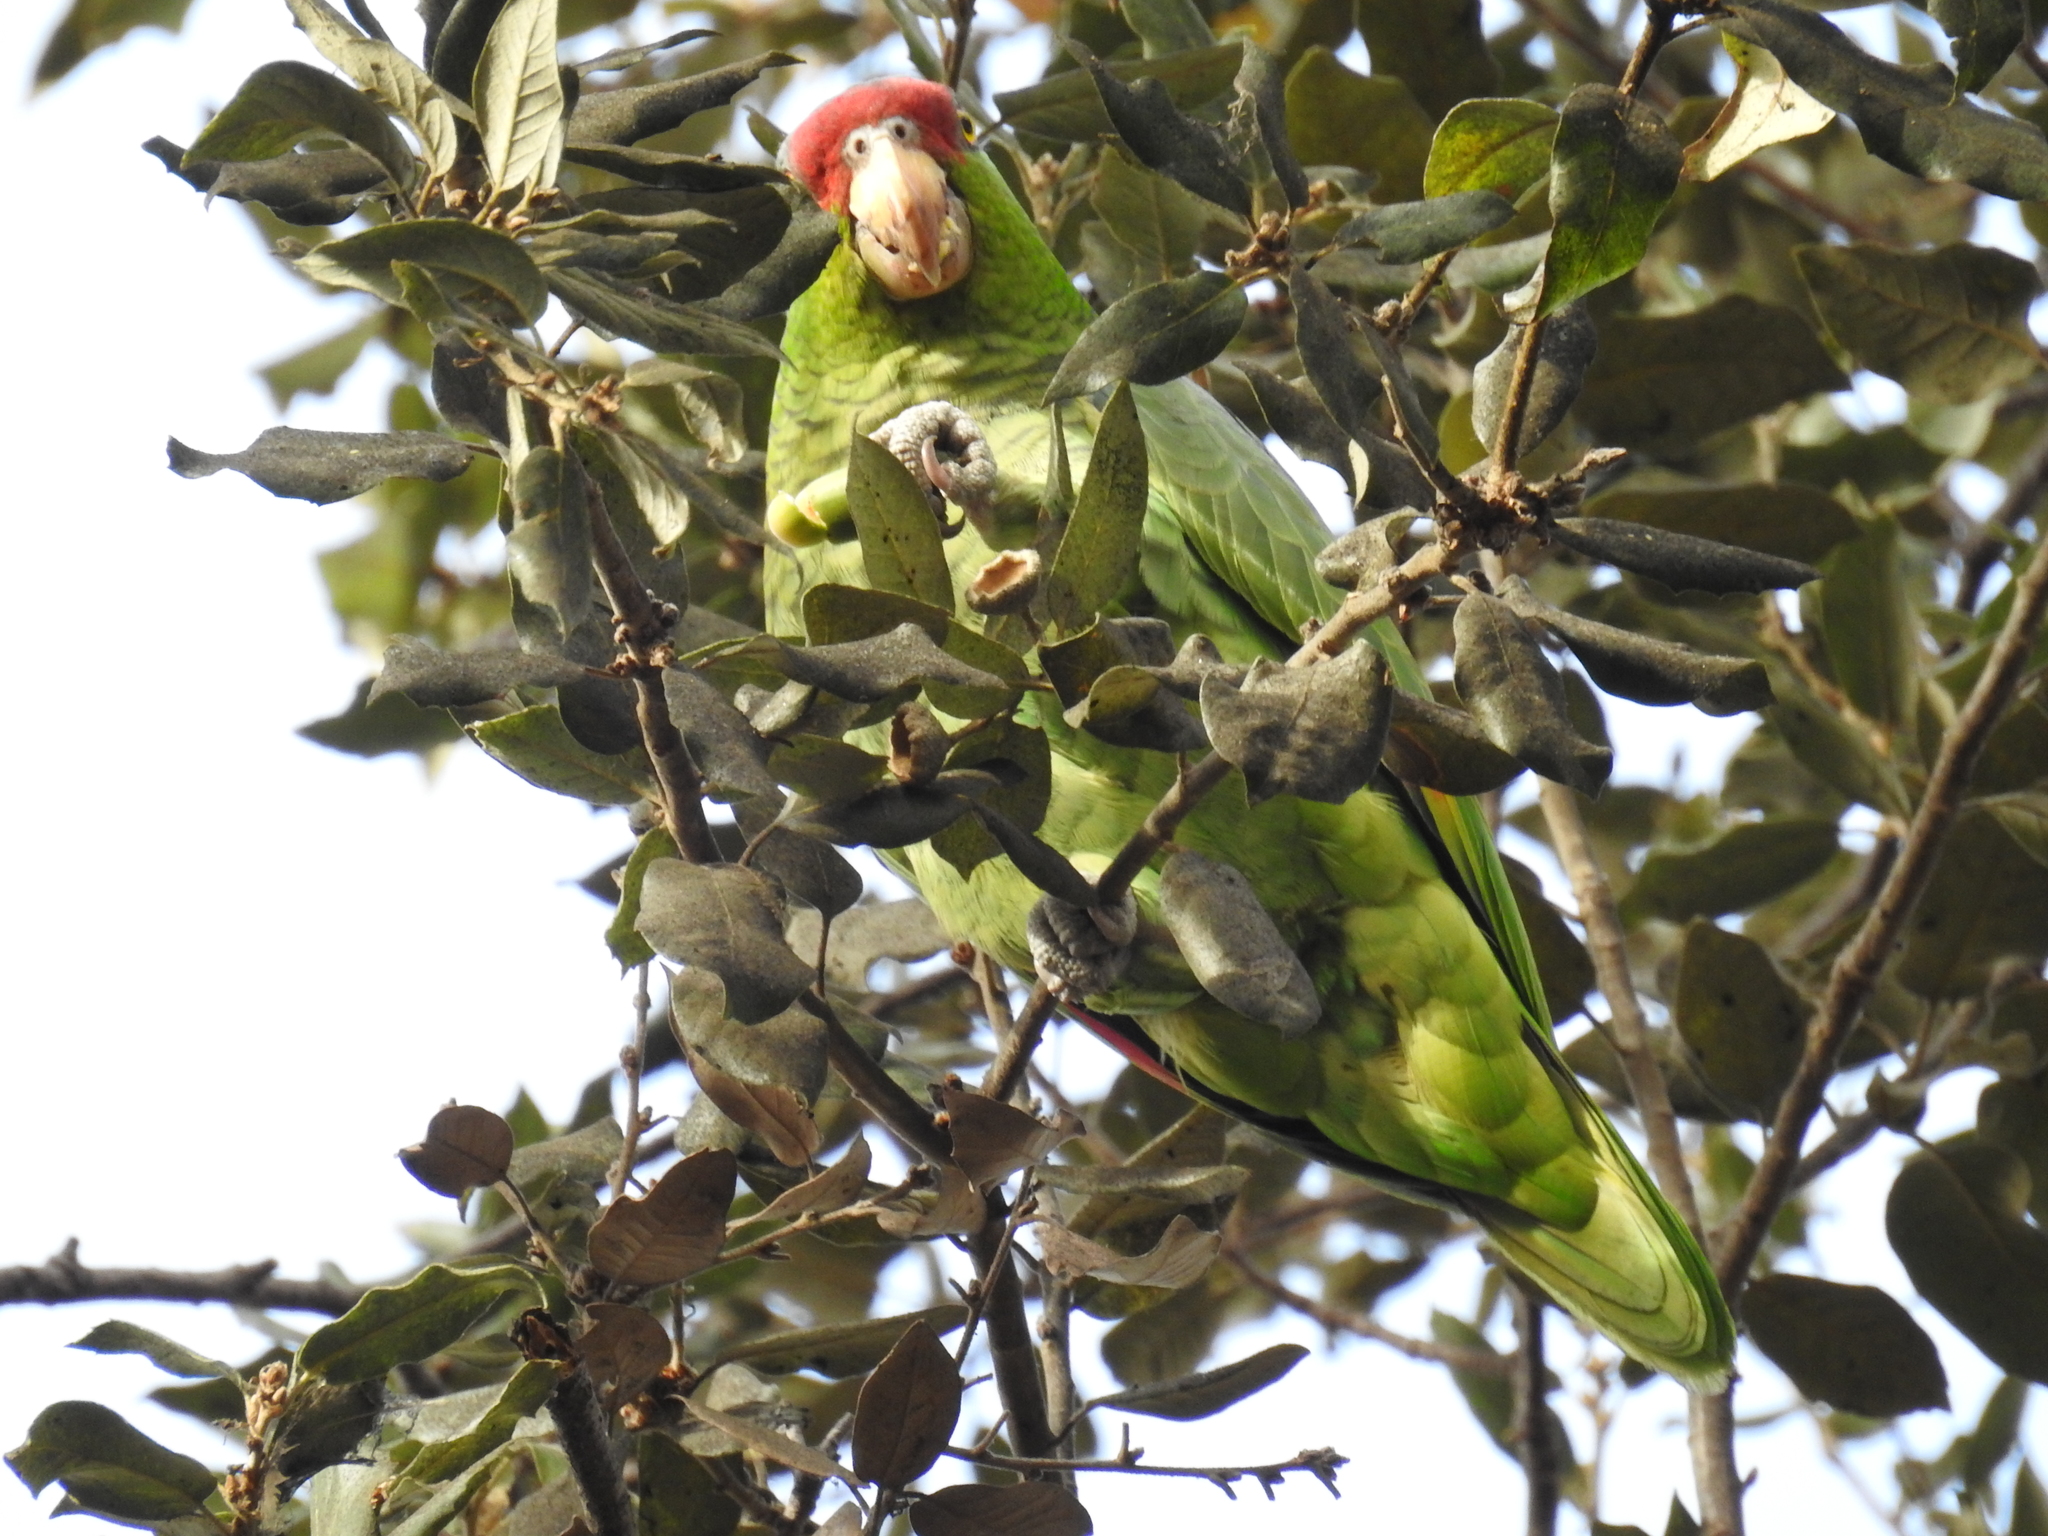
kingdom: Animalia
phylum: Chordata
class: Aves
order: Psittaciformes
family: Psittacidae
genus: Amazona
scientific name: Amazona viridigenalis
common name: Red-crowned amazon
